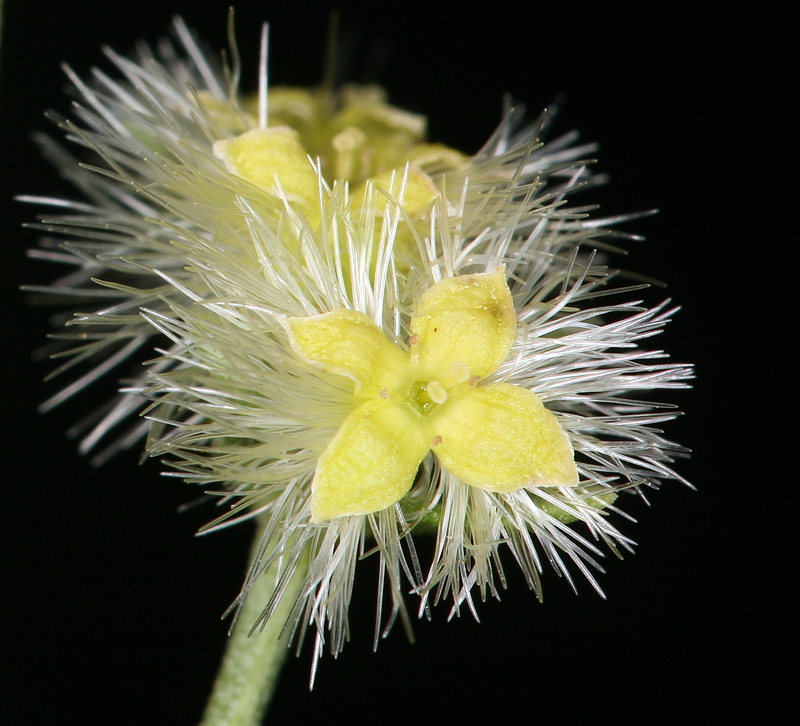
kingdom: Plantae
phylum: Tracheophyta
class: Magnoliopsida
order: Gentianales
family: Rubiaceae
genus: Galium
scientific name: Galium serpenticum
